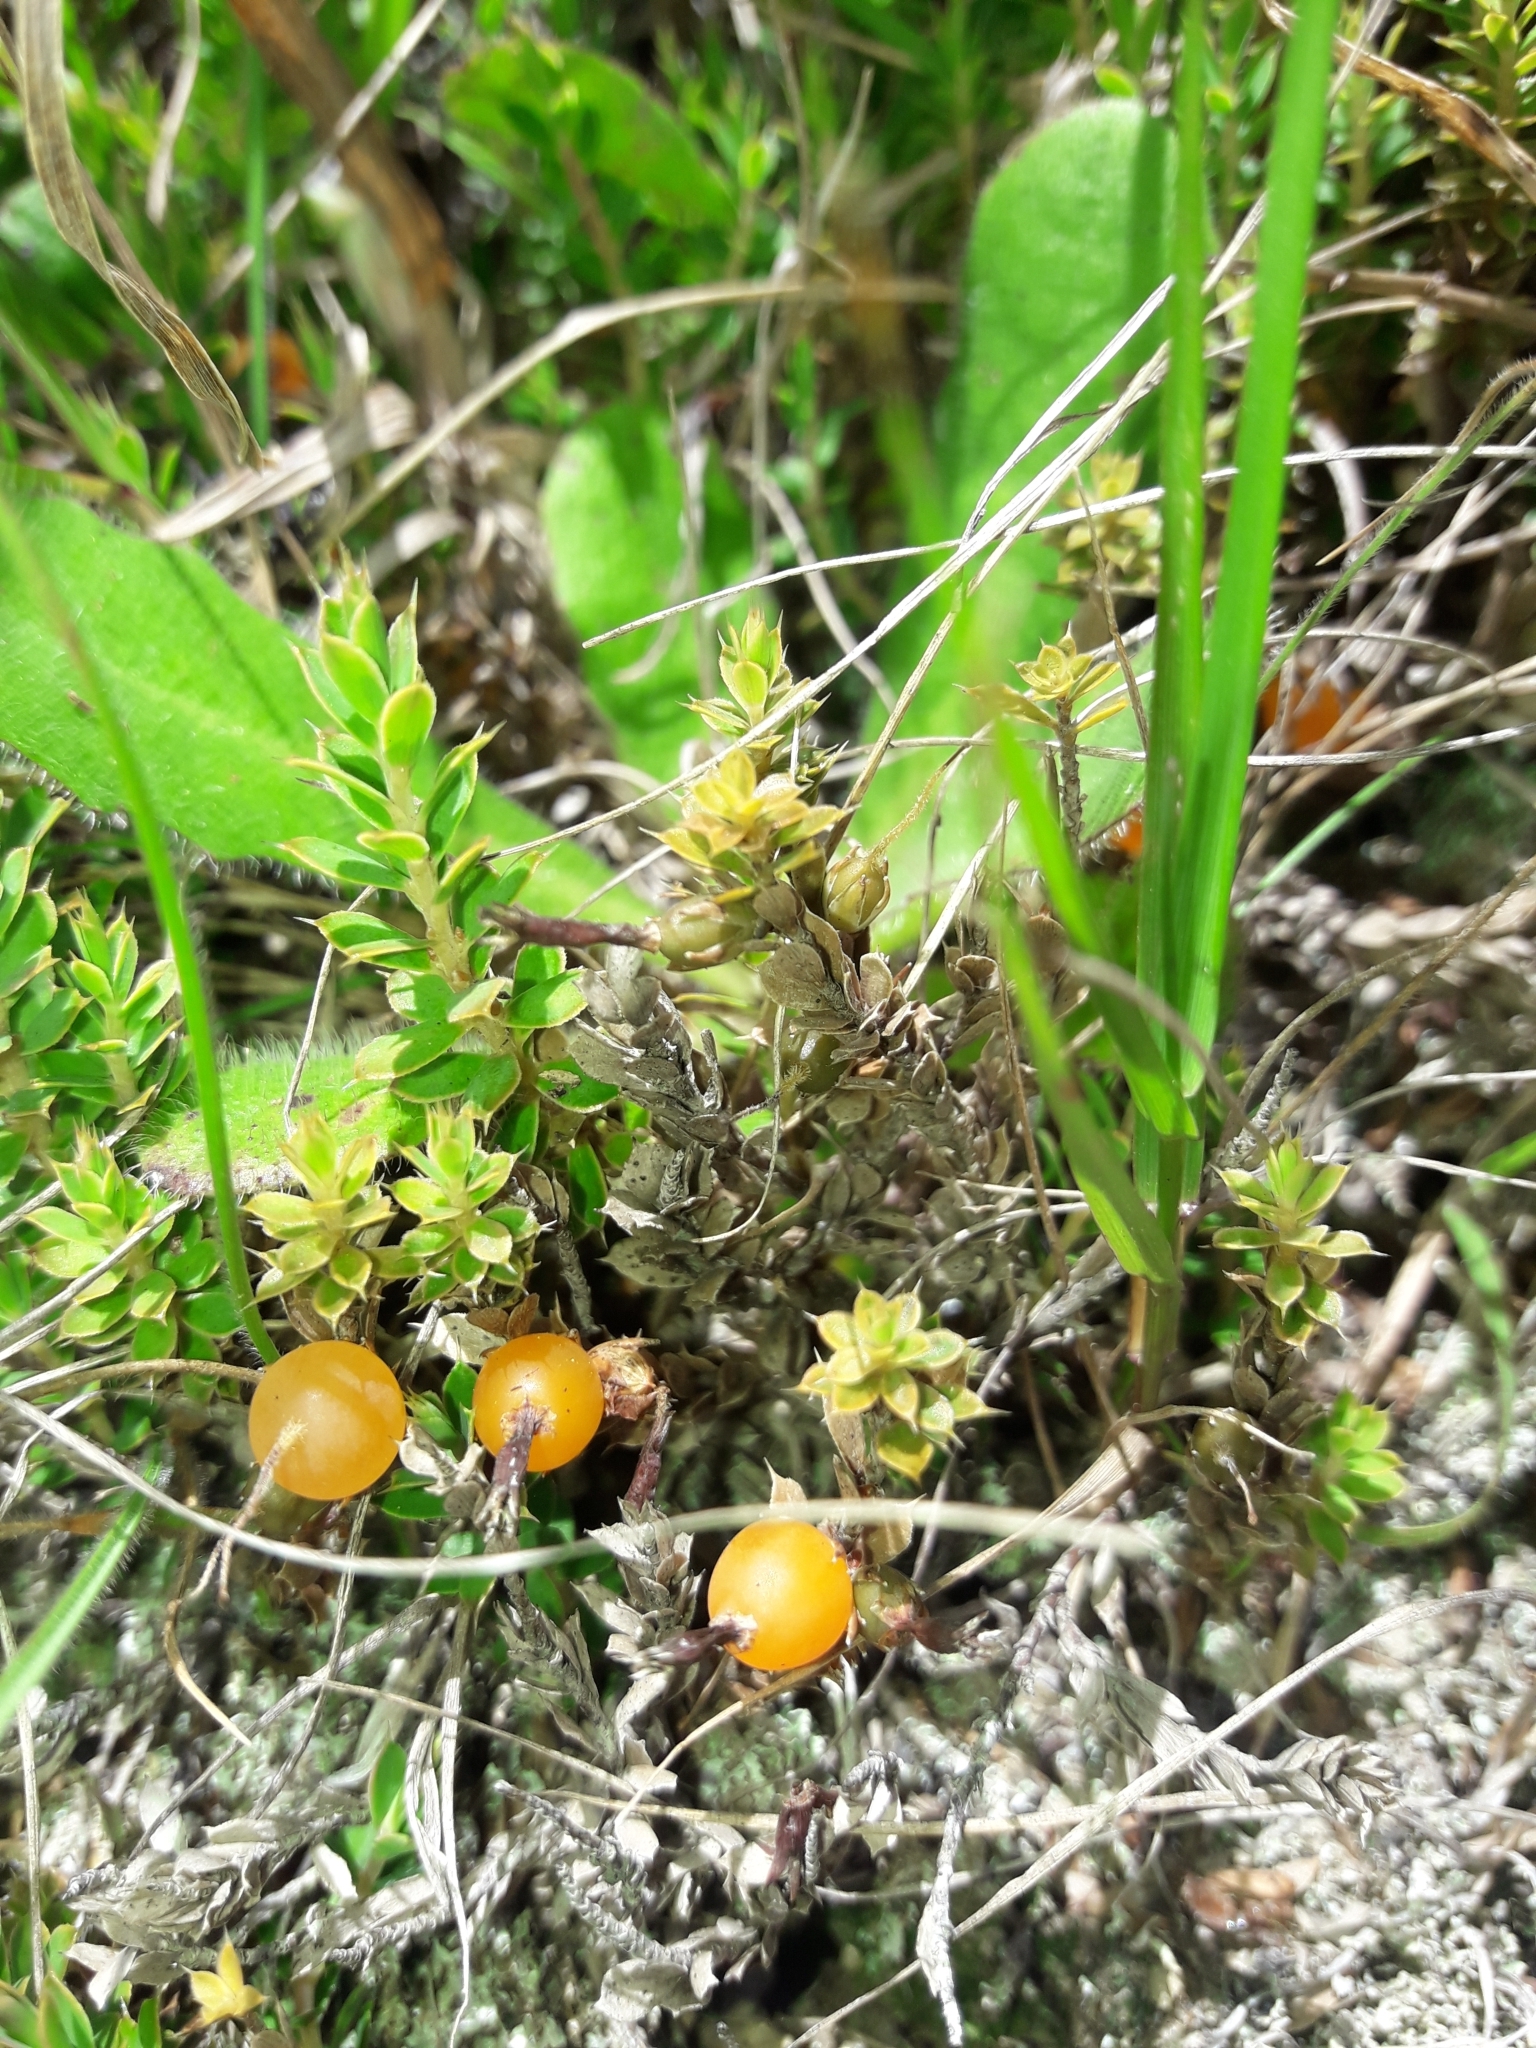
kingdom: Plantae
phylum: Tracheophyta
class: Magnoliopsida
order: Ericales
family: Ericaceae
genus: Styphelia
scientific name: Styphelia nesophila
